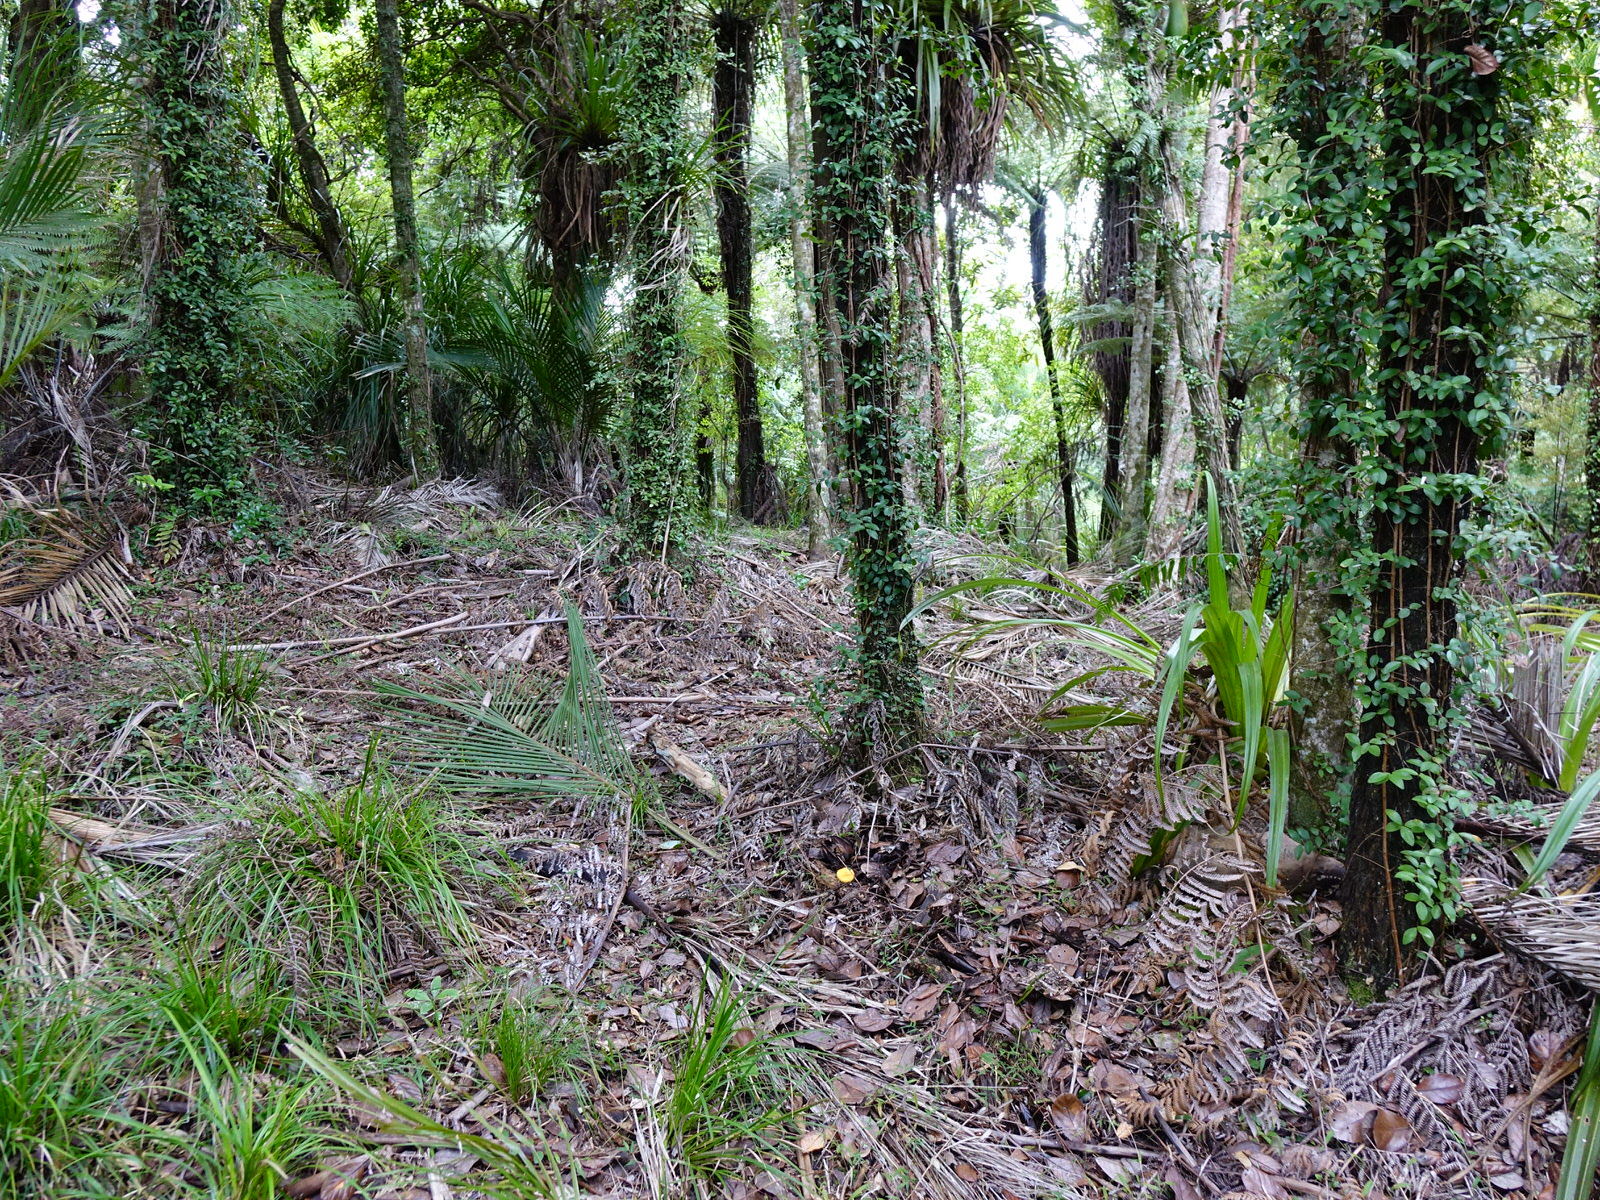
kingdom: Fungi
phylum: Basidiomycota
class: Agaricomycetes
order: Agaricales
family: Physalacriaceae
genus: Cyptotrama
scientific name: Cyptotrama asprata
